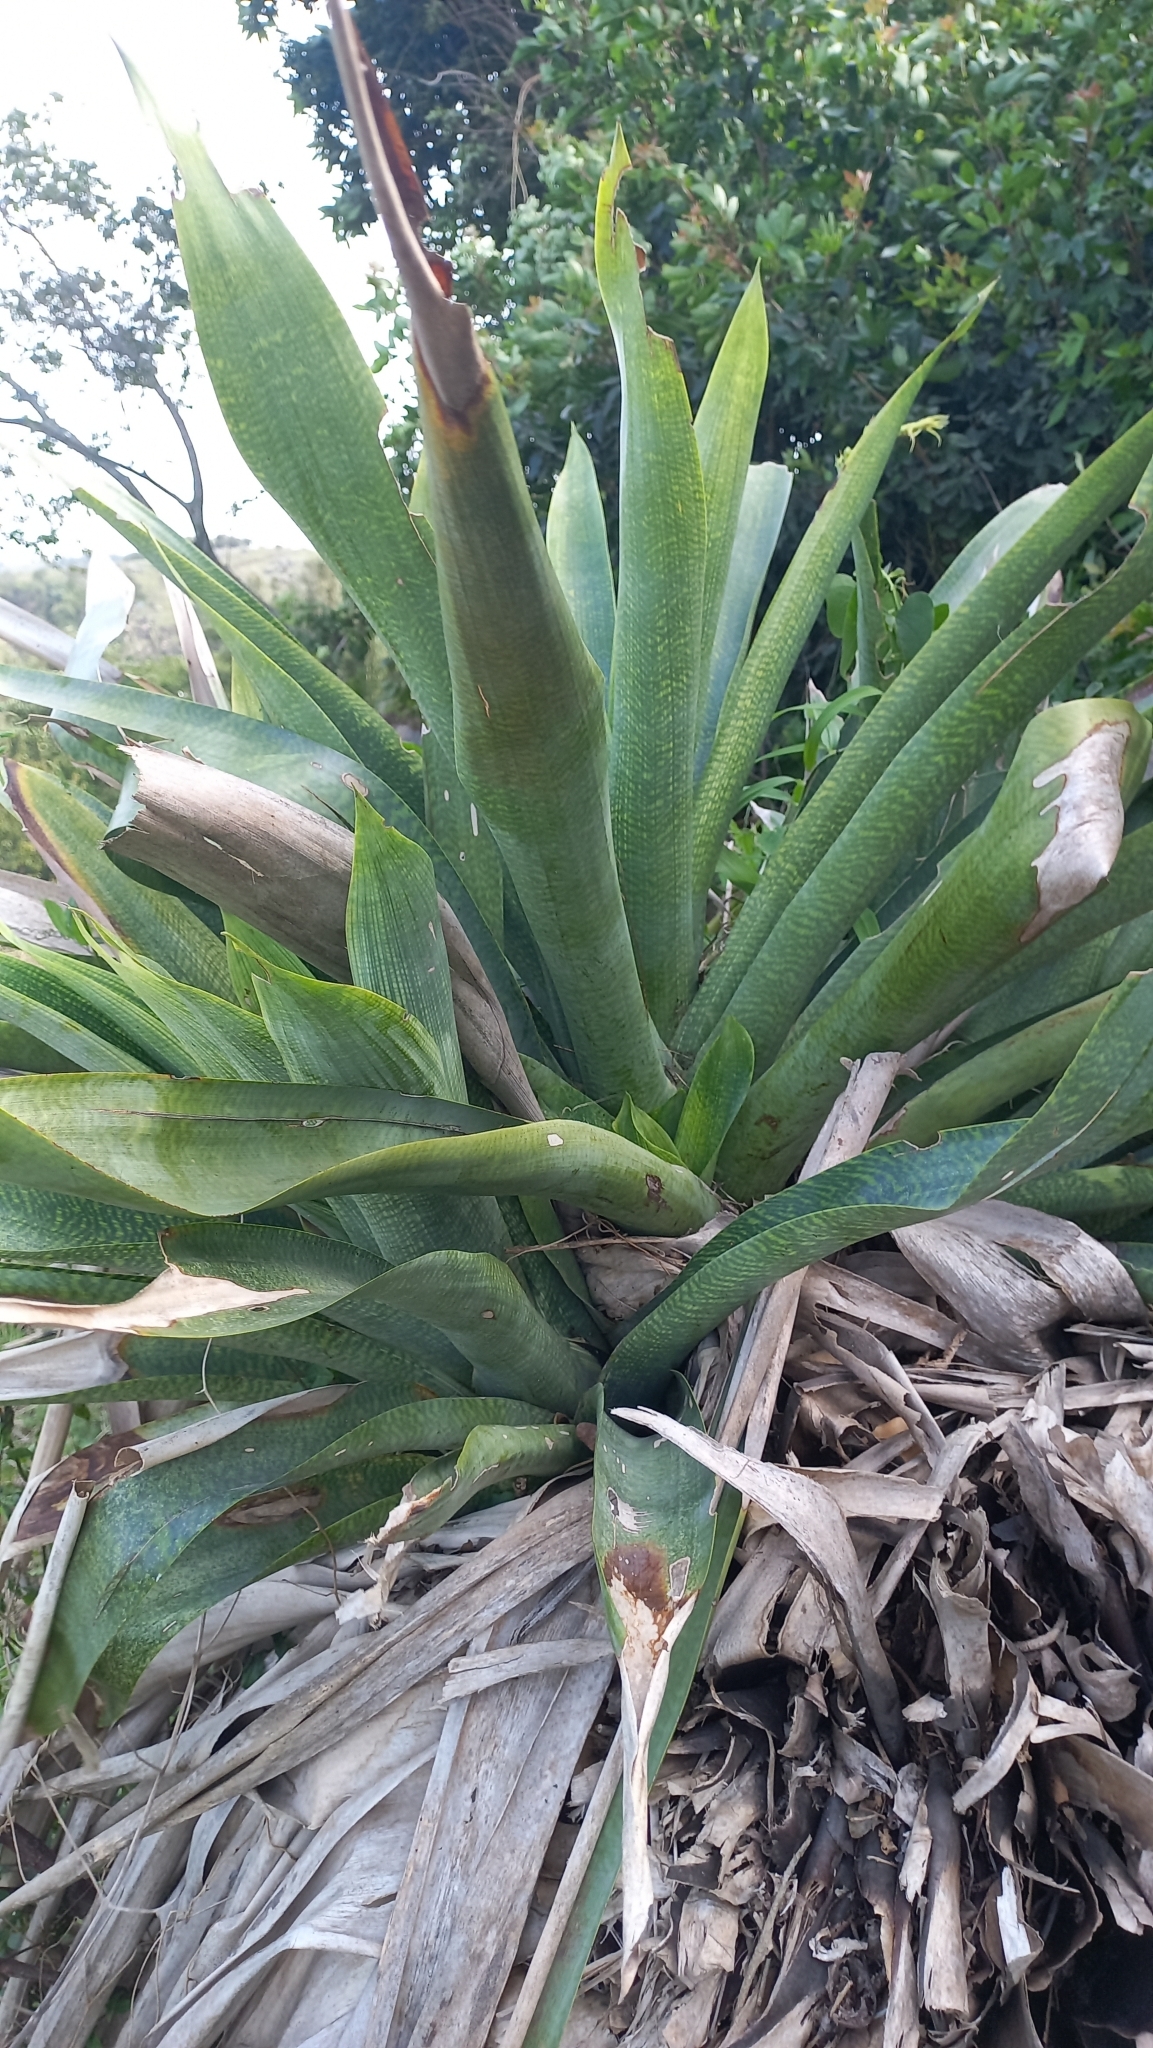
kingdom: Plantae
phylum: Tracheophyta
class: Liliopsida
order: Poales
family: Bromeliaceae
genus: Vriesea
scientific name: Vriesea gigantea
